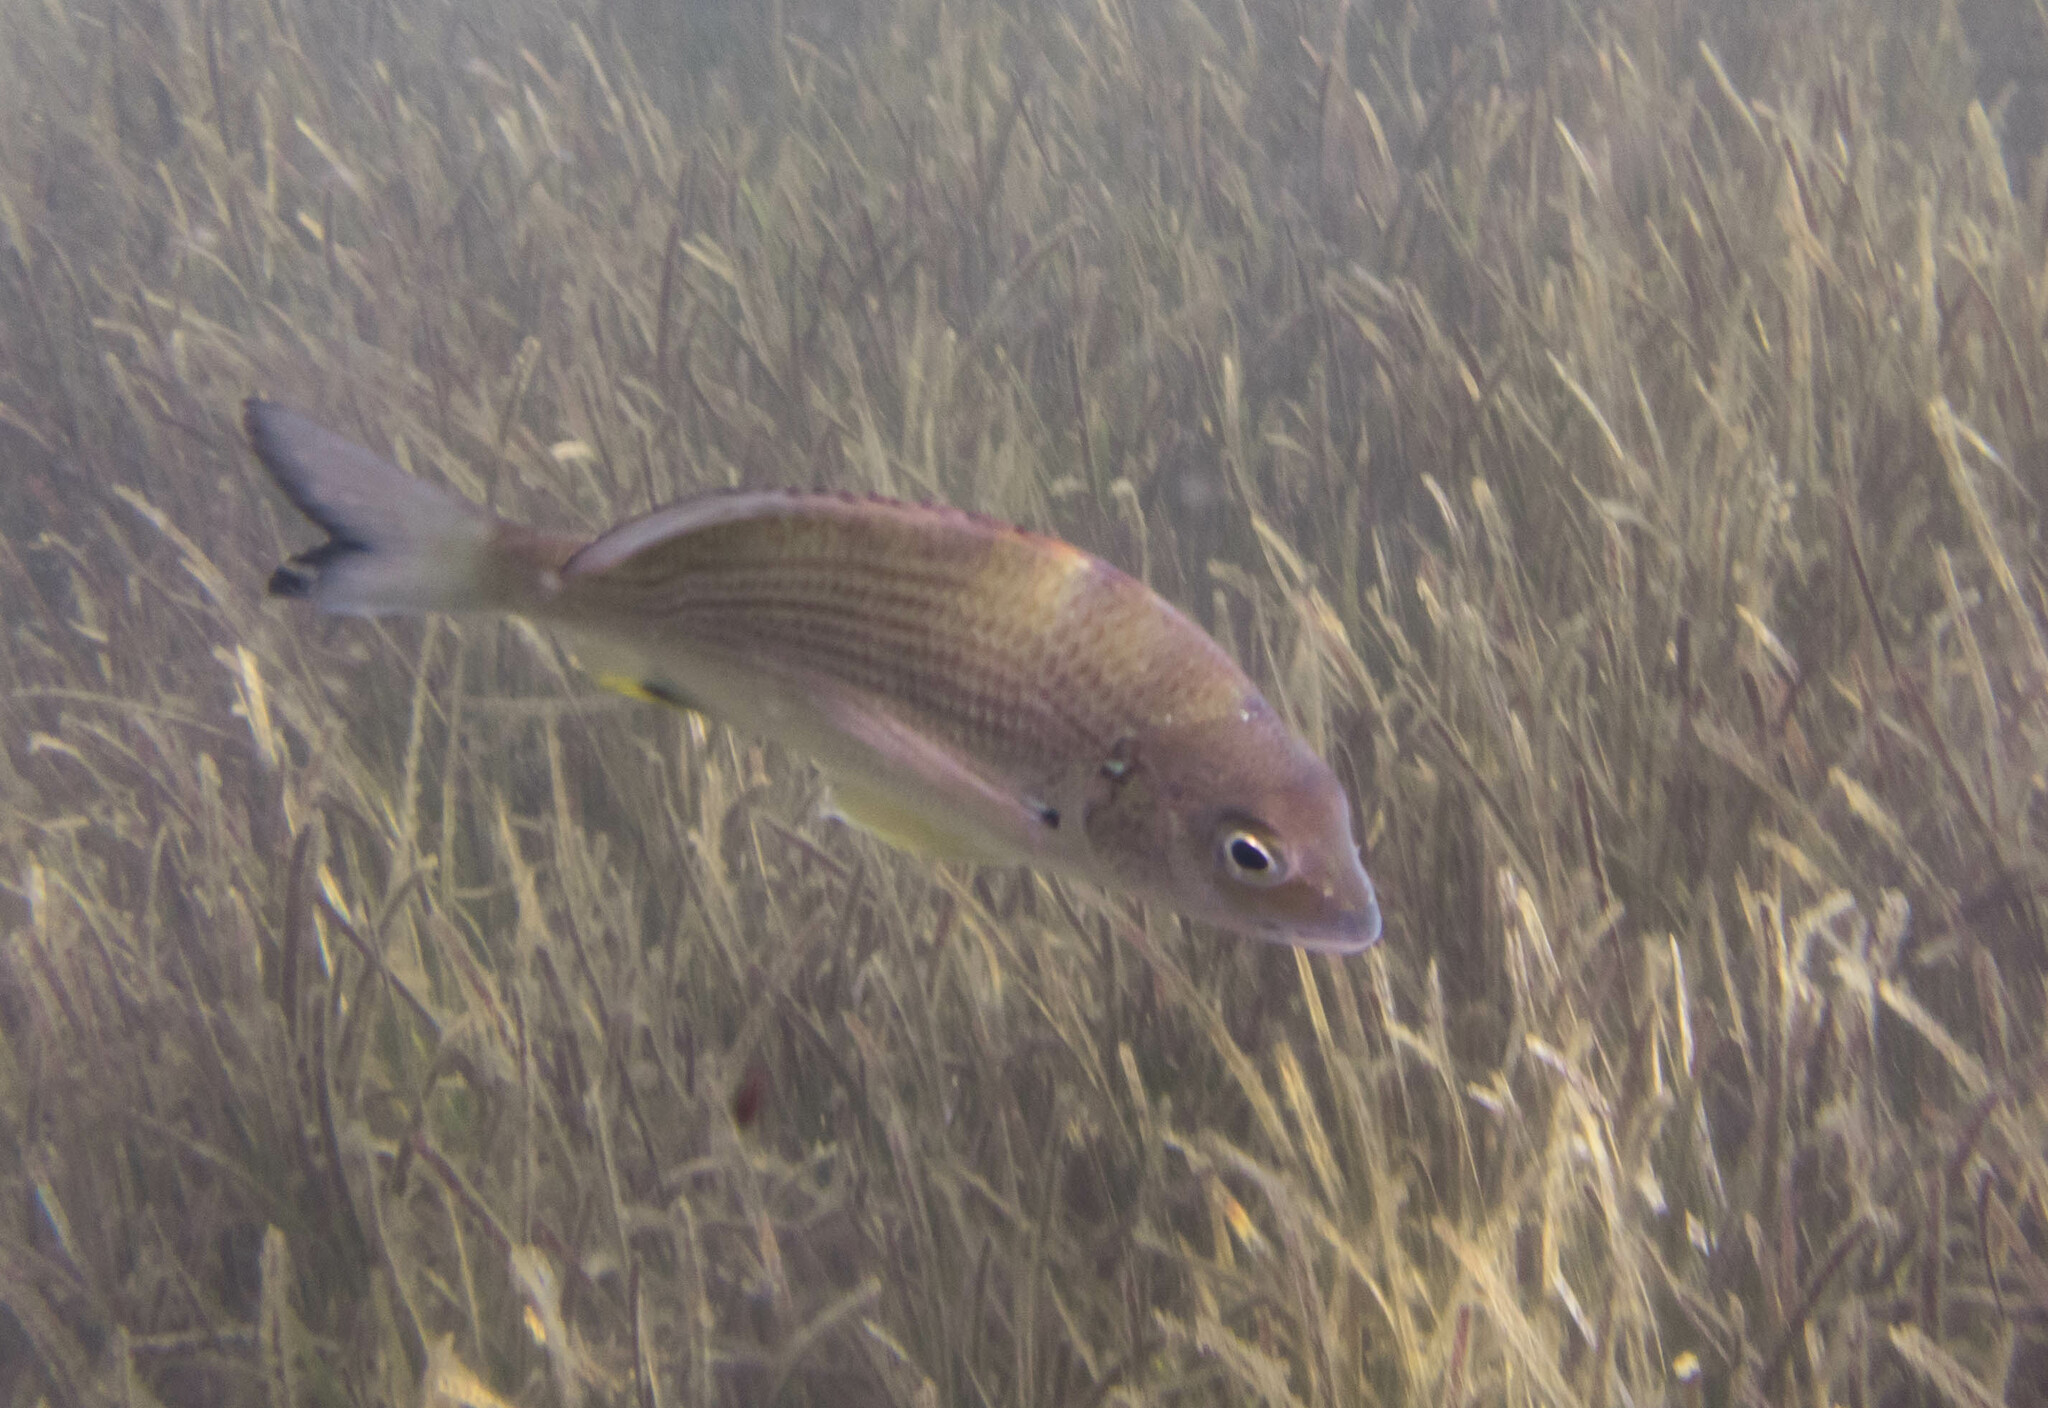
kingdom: Animalia
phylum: Chordata
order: Perciformes
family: Sparidae
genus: Acanthopagrus
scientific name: Acanthopagrus australis
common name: Surf bream
